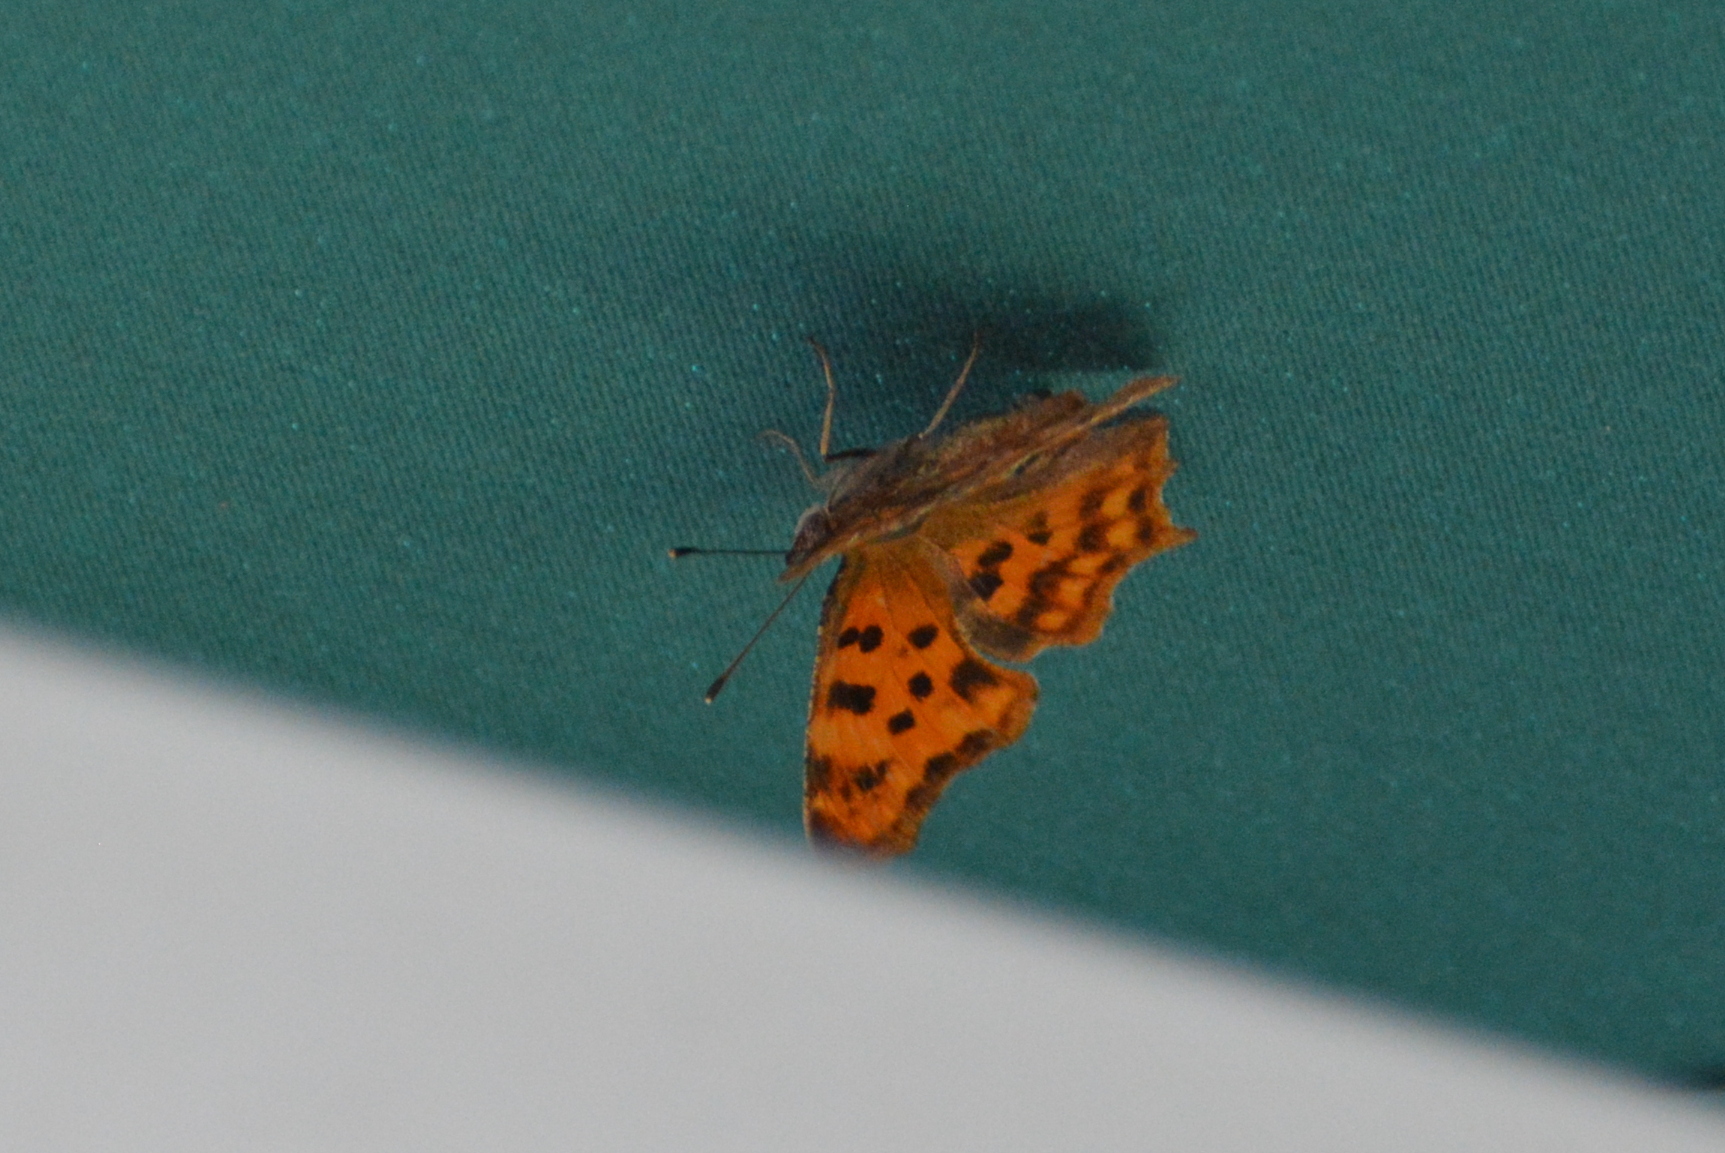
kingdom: Animalia
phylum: Arthropoda
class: Insecta
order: Lepidoptera
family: Nymphalidae
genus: Polygonia
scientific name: Polygonia c-album
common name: Comma
